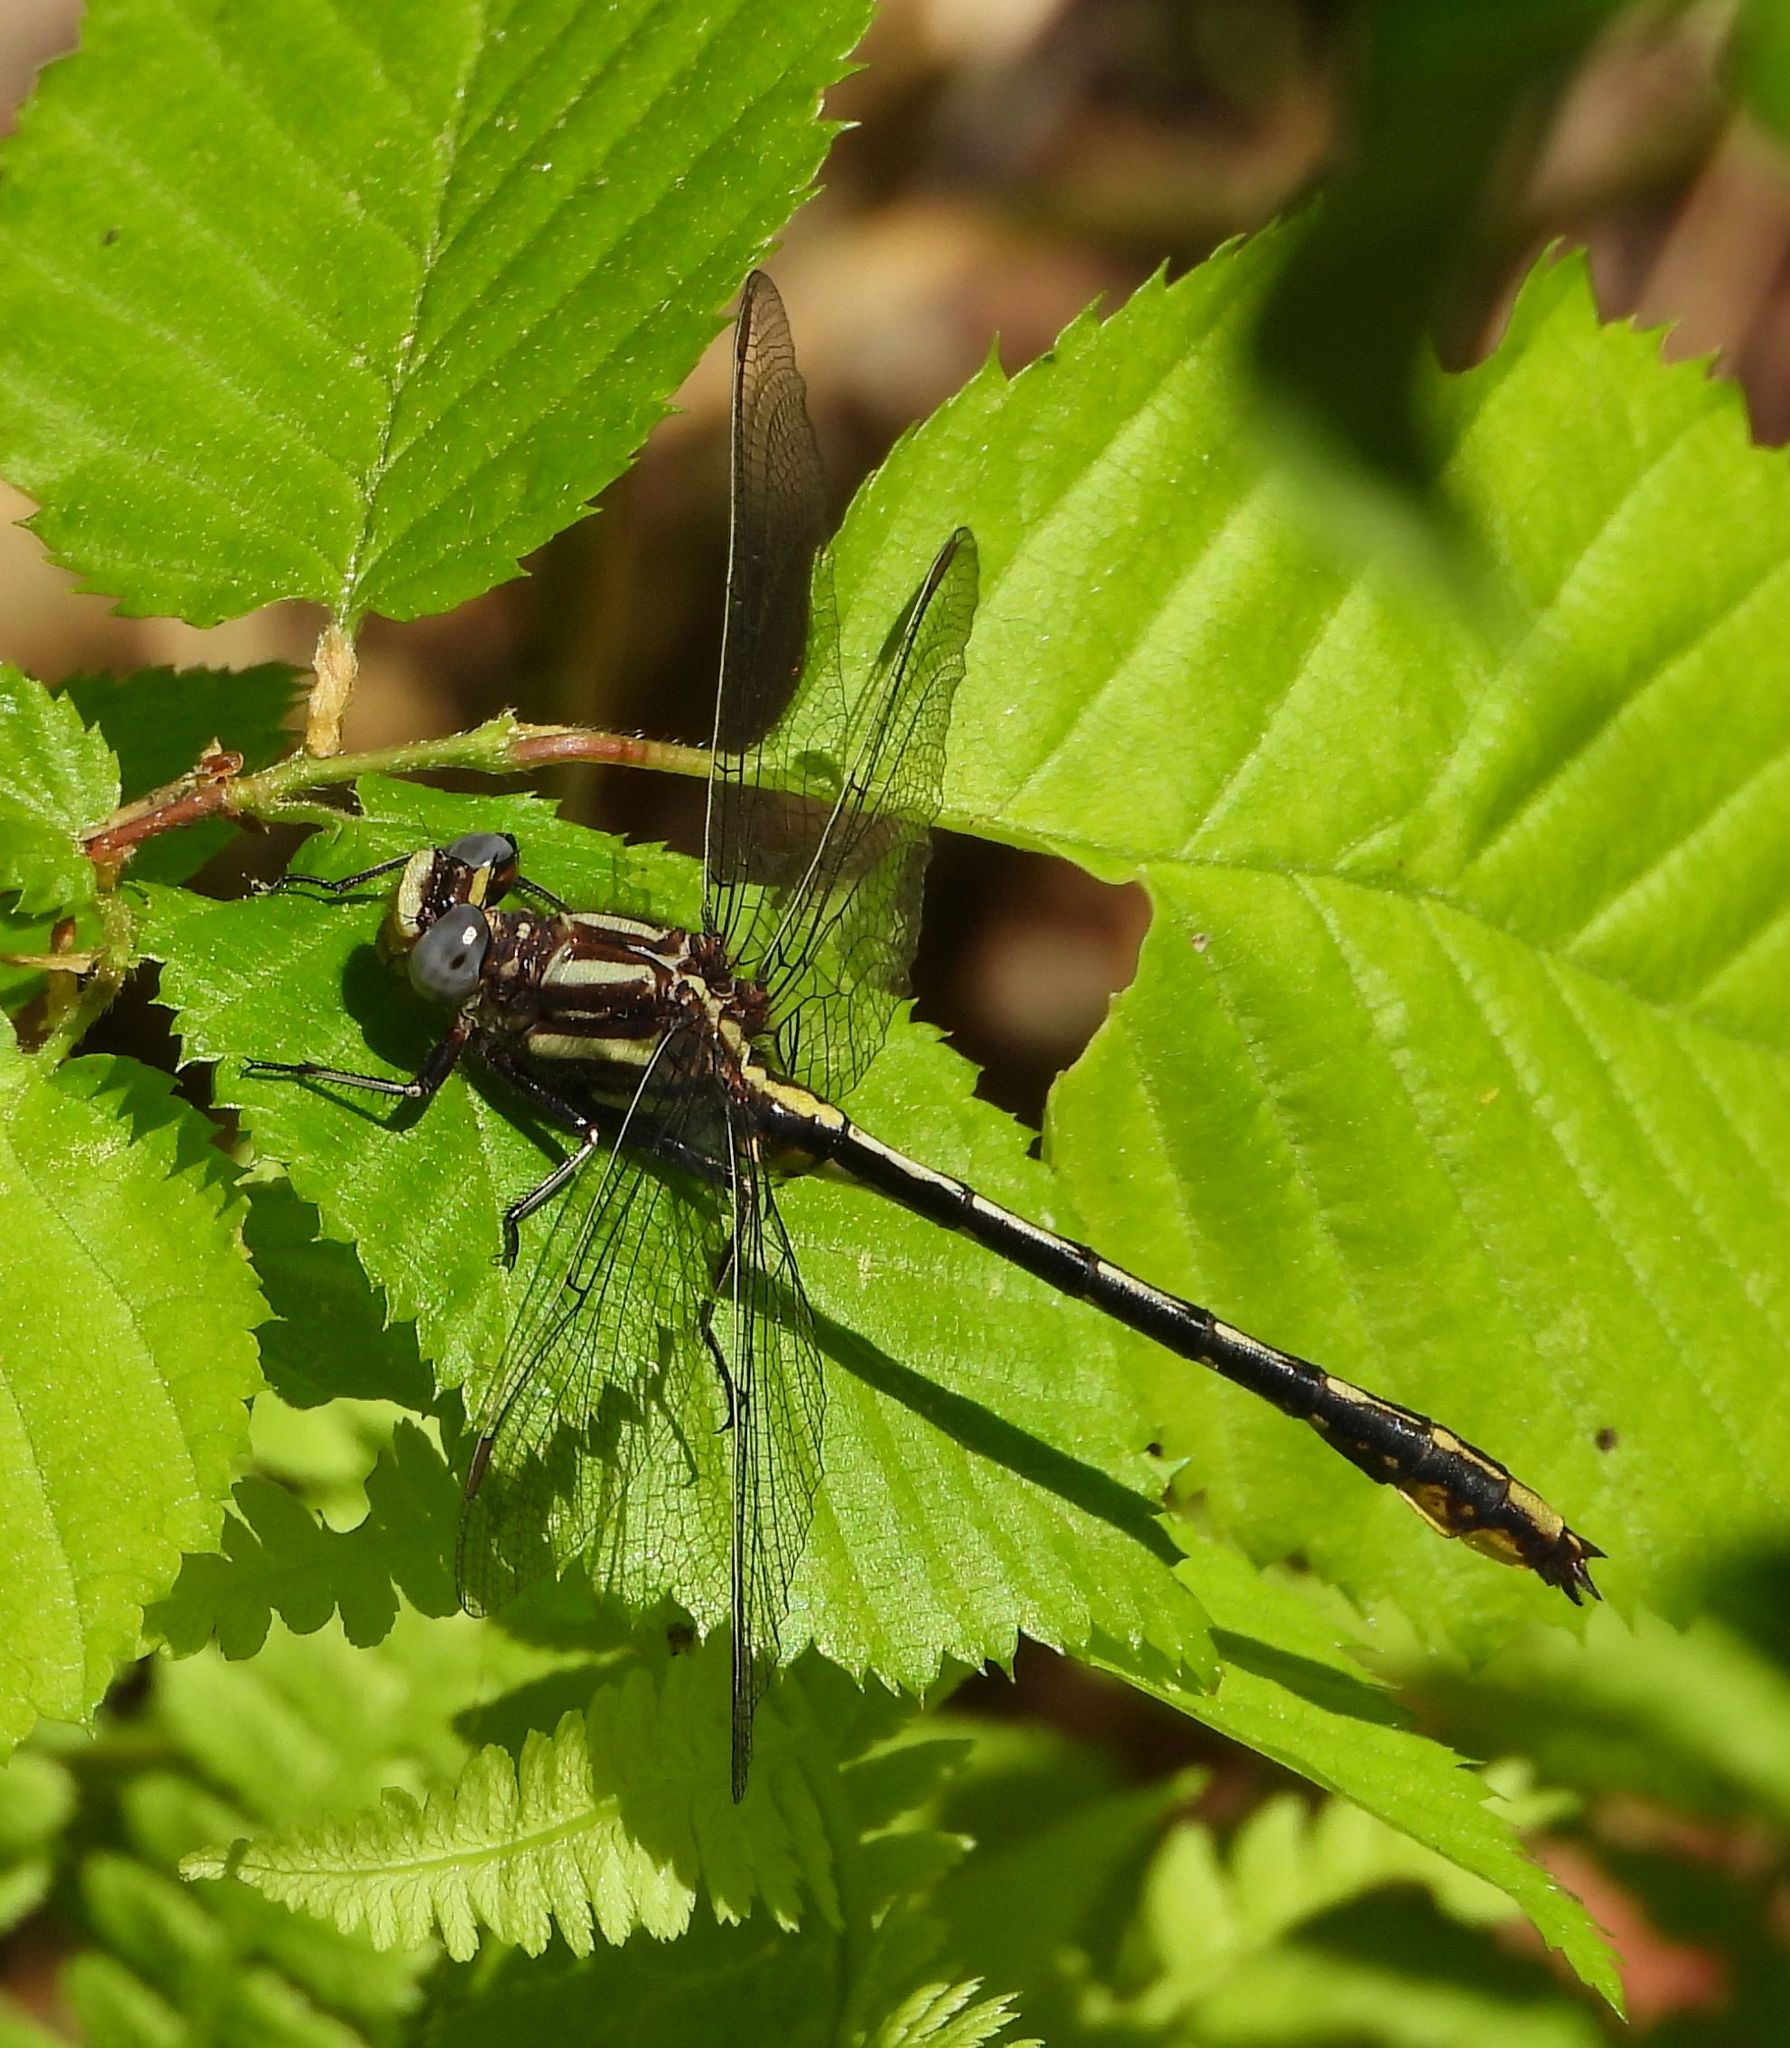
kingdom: Animalia
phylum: Arthropoda
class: Insecta
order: Odonata
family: Gomphidae
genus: Phanogomphus
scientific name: Phanogomphus exilis
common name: Lancet clubtail
